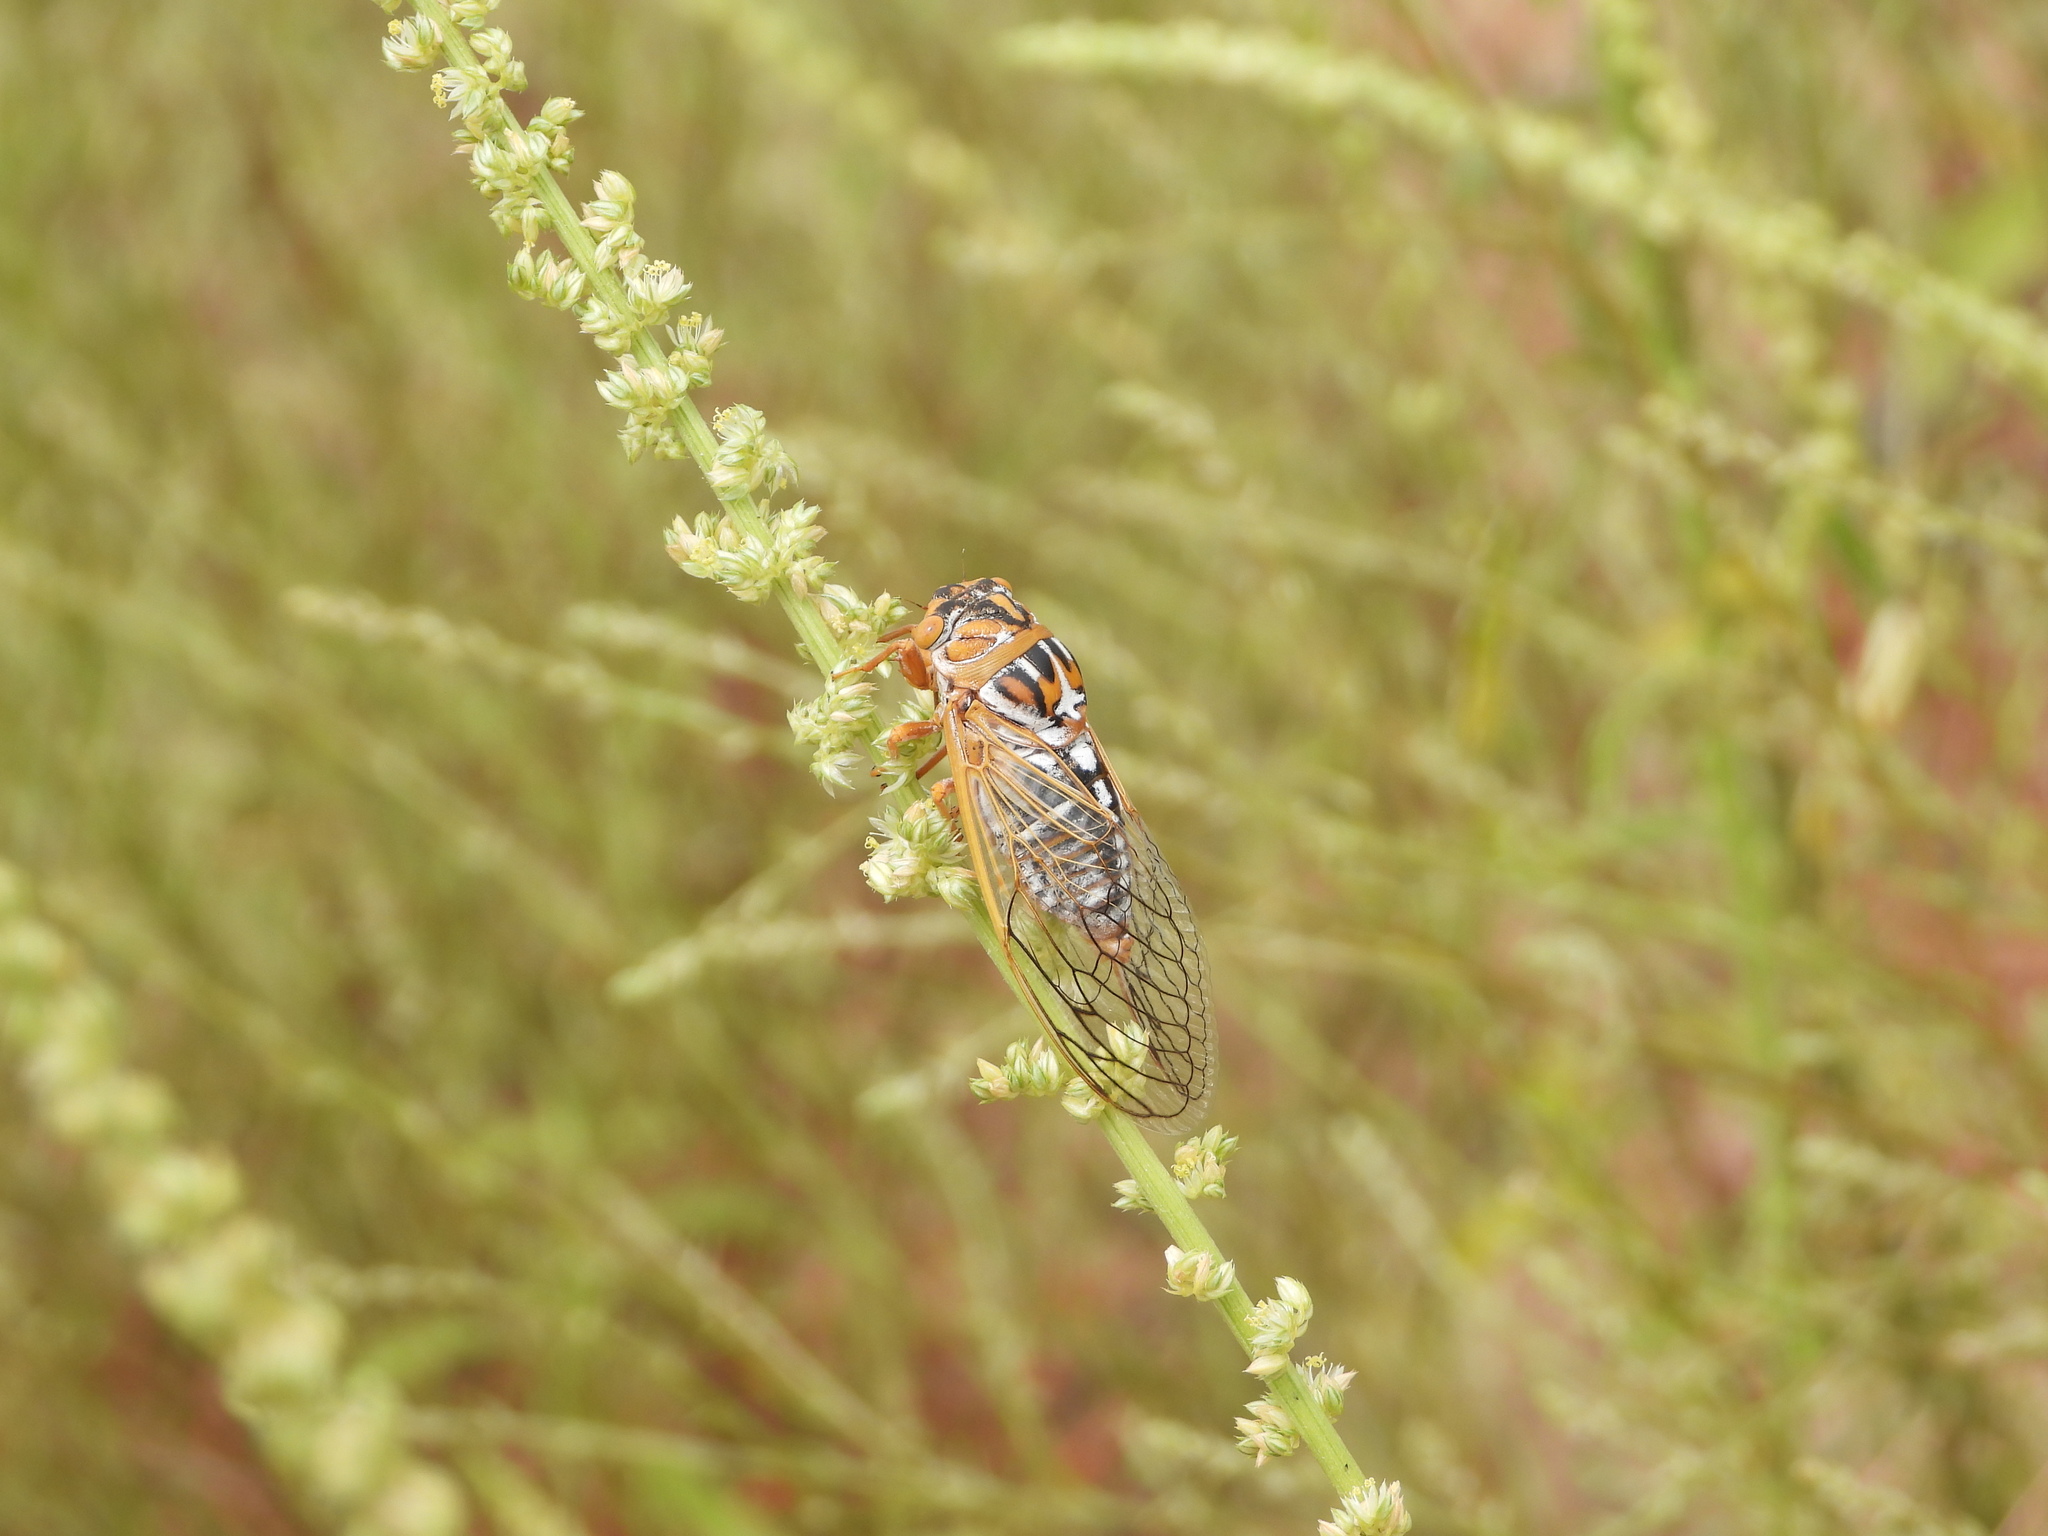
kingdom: Animalia
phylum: Arthropoda
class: Insecta
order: Hemiptera
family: Cicadidae
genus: Megatibicen
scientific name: Megatibicen harenosus
